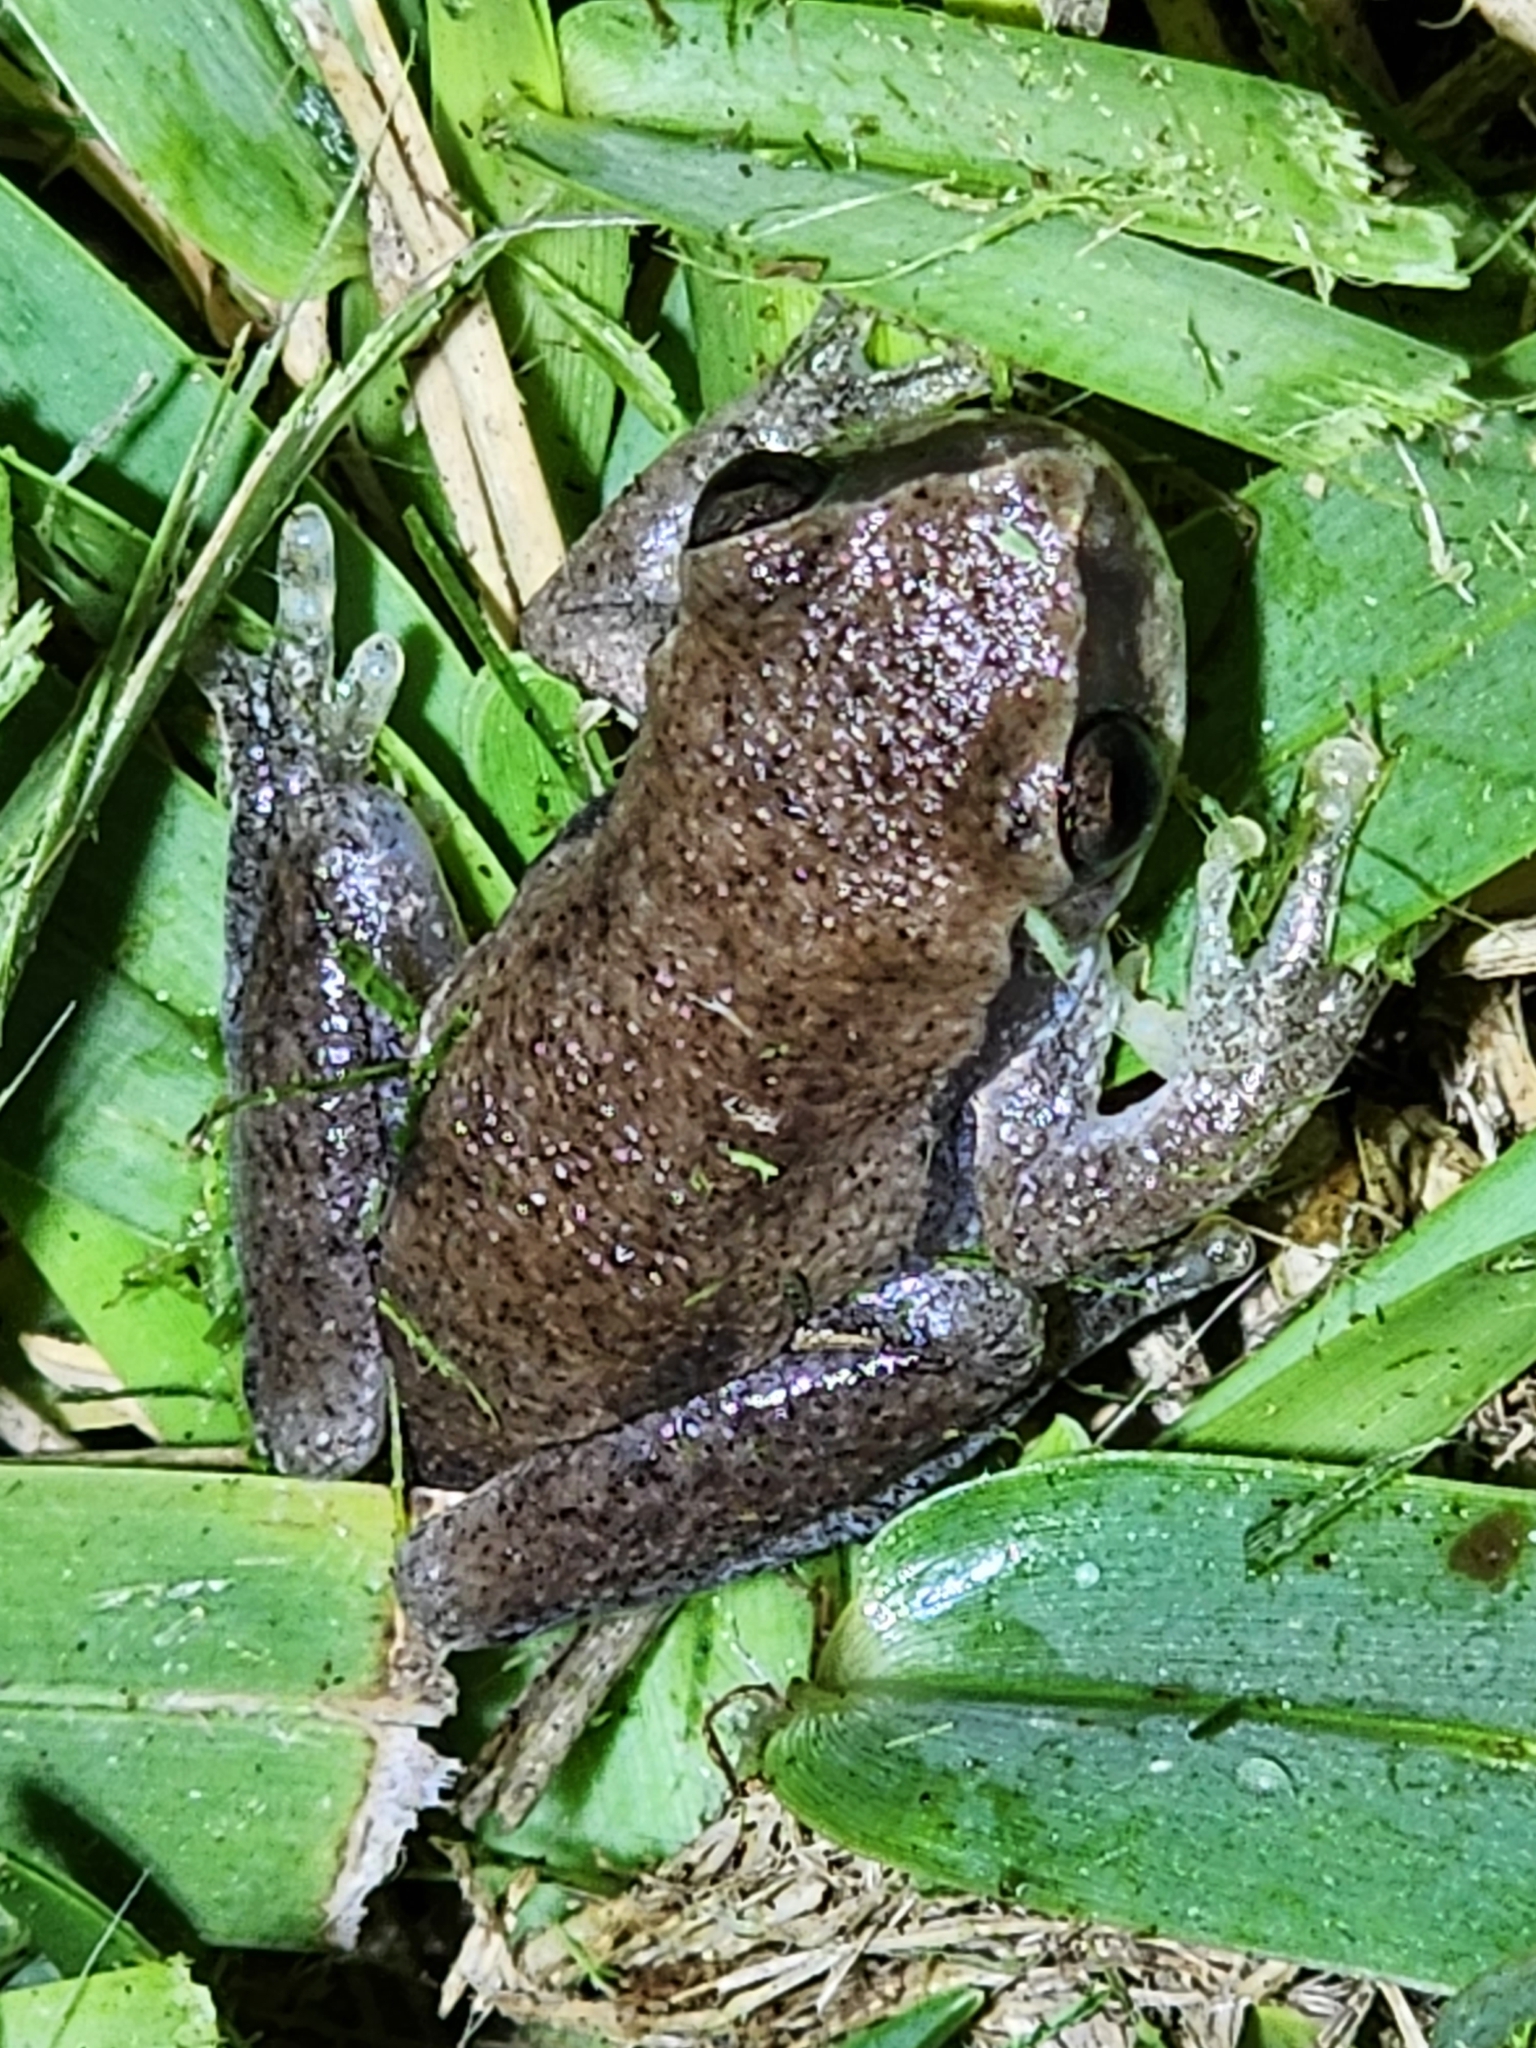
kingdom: Animalia
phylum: Chordata
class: Amphibia
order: Anura
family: Pelodryadidae
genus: Litoria
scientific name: Litoria rubella
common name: Desert tree frog
